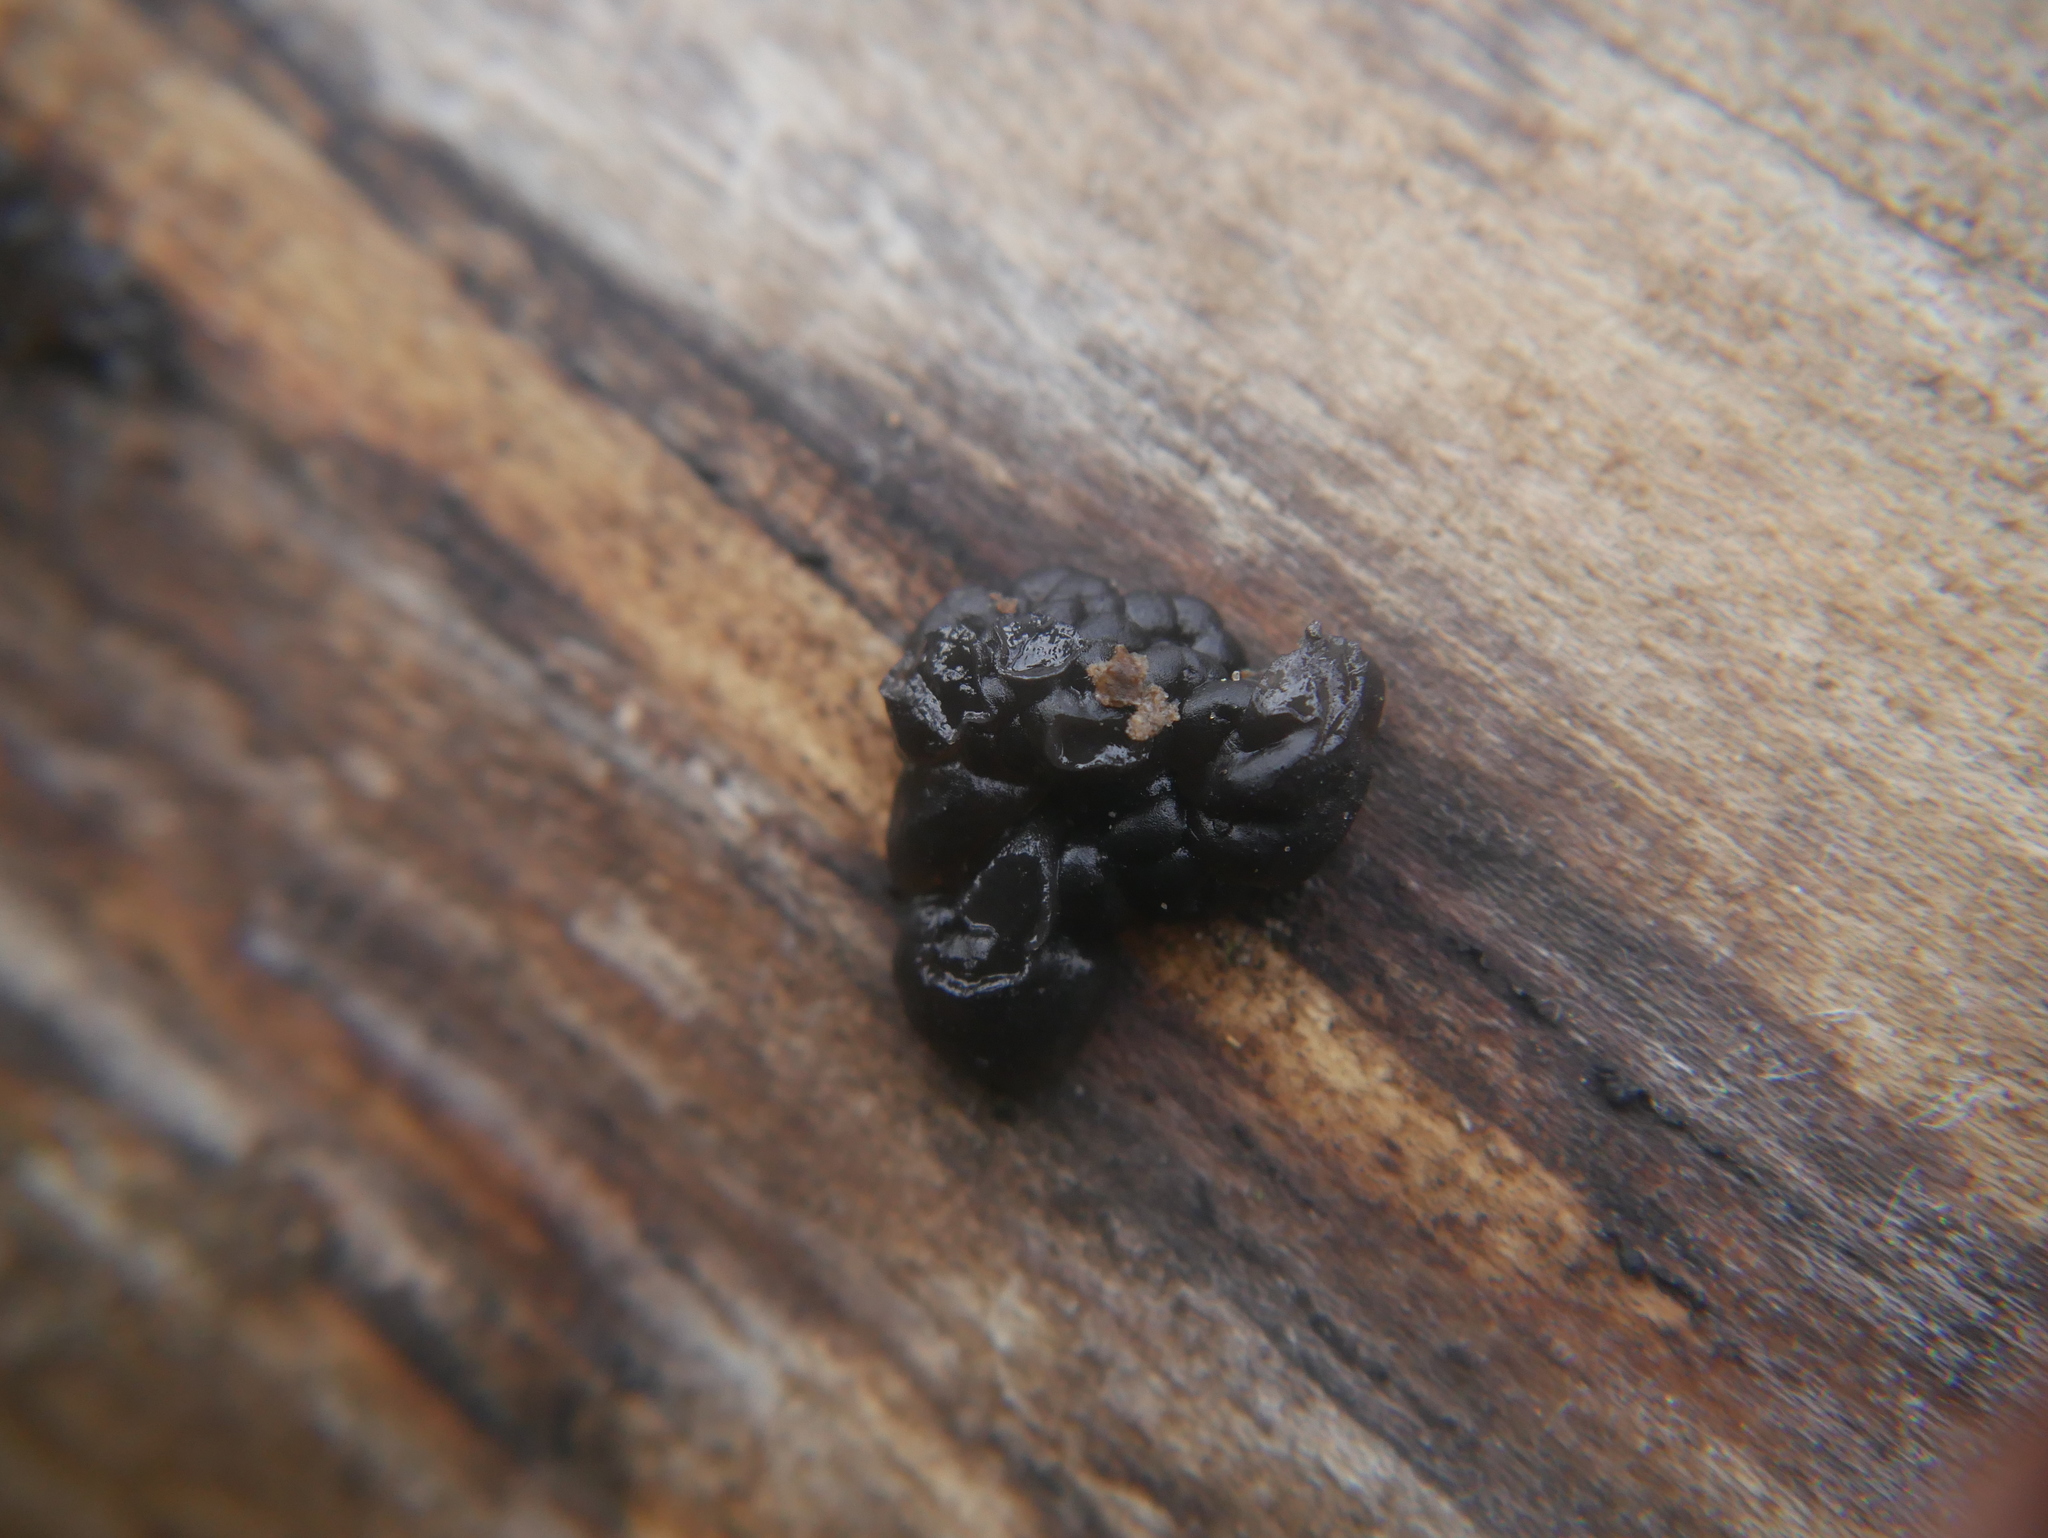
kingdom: Fungi
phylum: Basidiomycota
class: Agaricomycetes
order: Auriculariales
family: Auriculariaceae
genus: Exidia
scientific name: Exidia glandulosa
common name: Witches' butter
